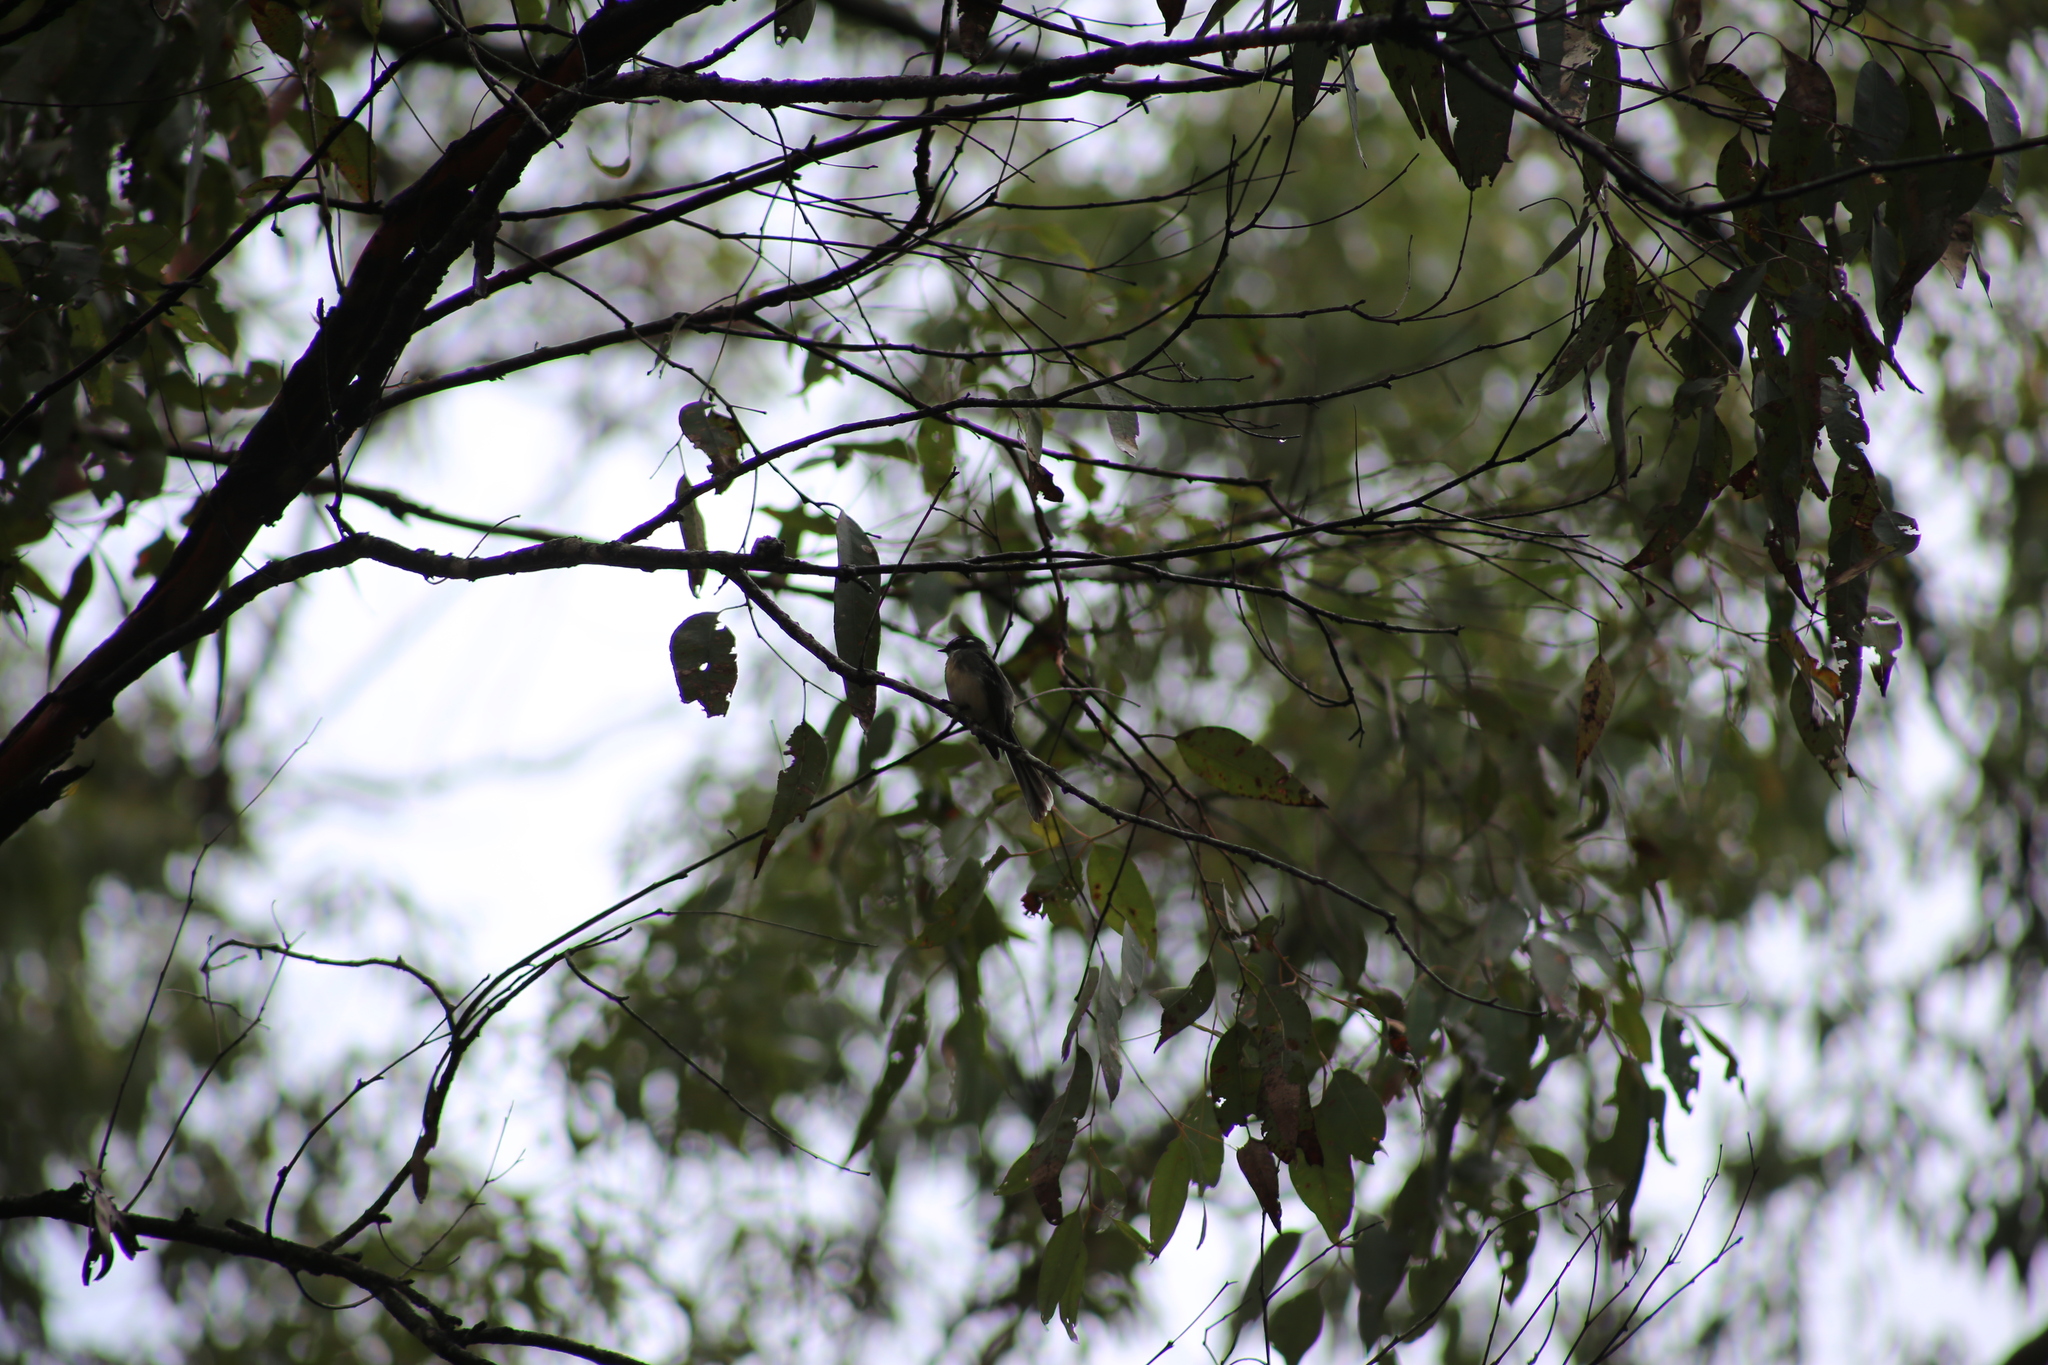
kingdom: Animalia
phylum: Chordata
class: Aves
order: Passeriformes
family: Rhipiduridae
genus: Rhipidura
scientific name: Rhipidura albiscapa
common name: Grey fantail
